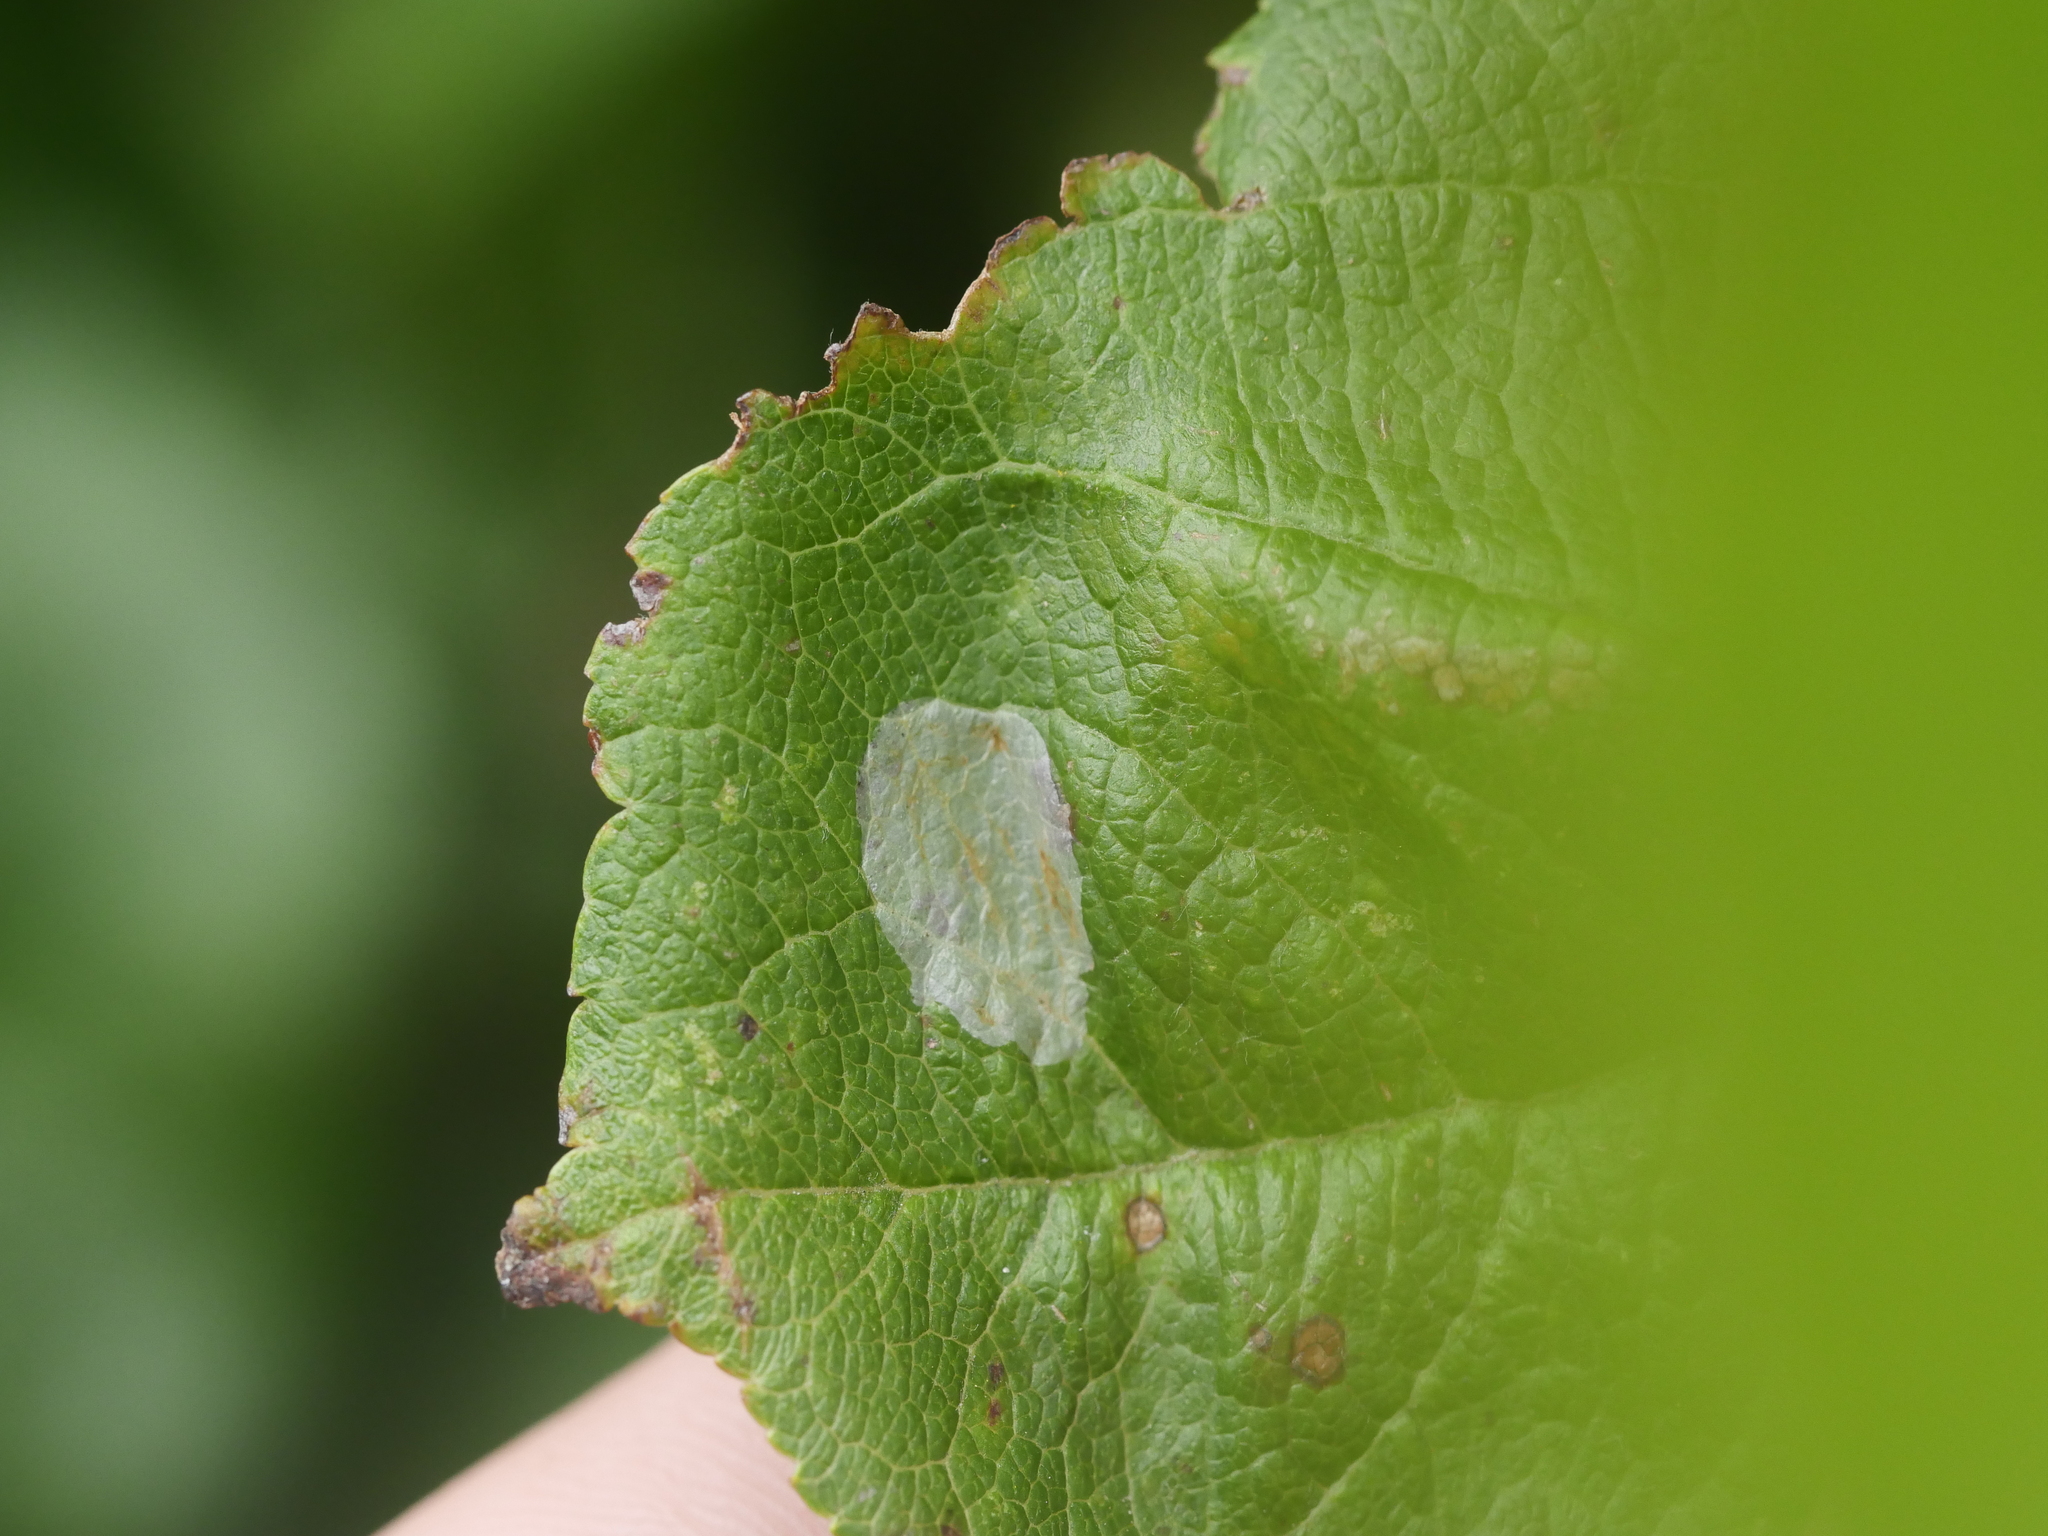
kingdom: Animalia
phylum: Arthropoda
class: Insecta
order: Lepidoptera
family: Gracillariidae
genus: Callisto
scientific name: Callisto denticulella
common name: Garden apple slender
